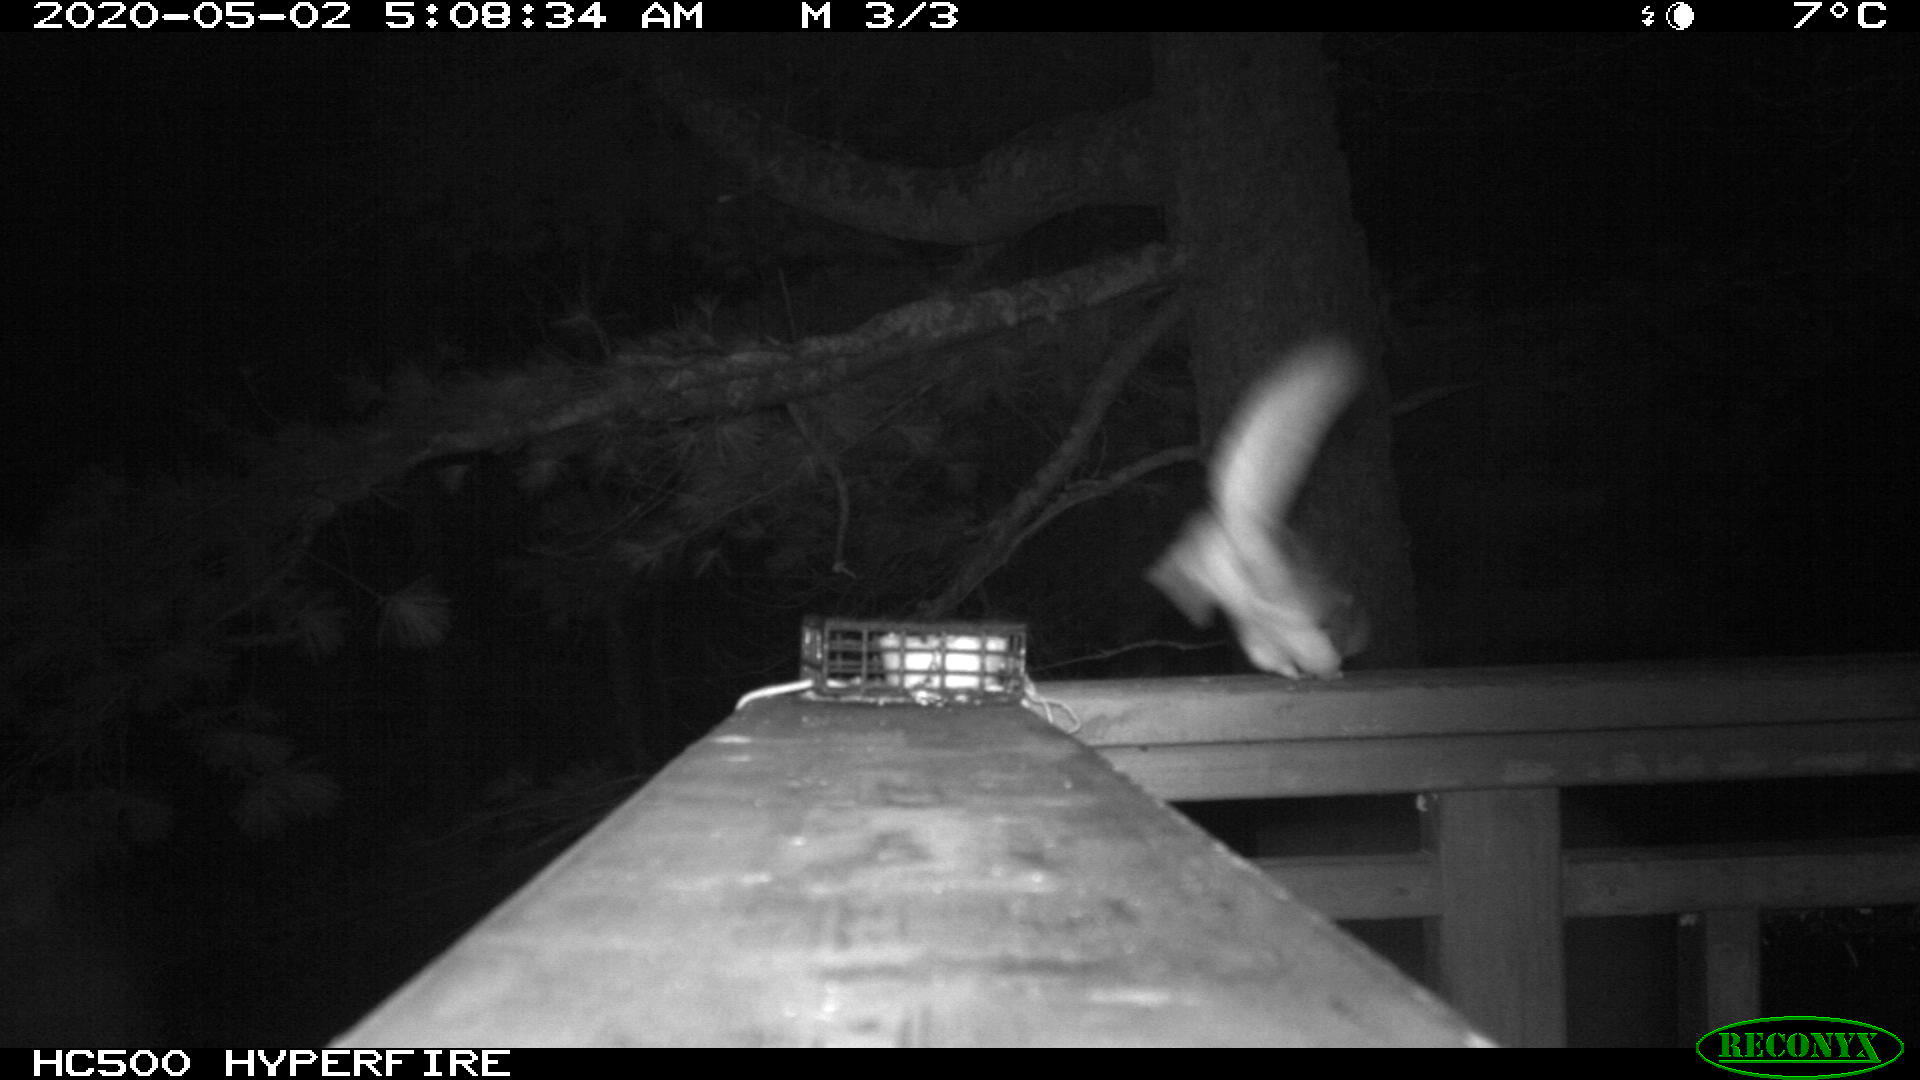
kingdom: Animalia
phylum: Chordata
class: Mammalia
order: Rodentia
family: Sciuridae
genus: Glaucomys
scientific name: Glaucomys sabrinus
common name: Northern flying squirrel
